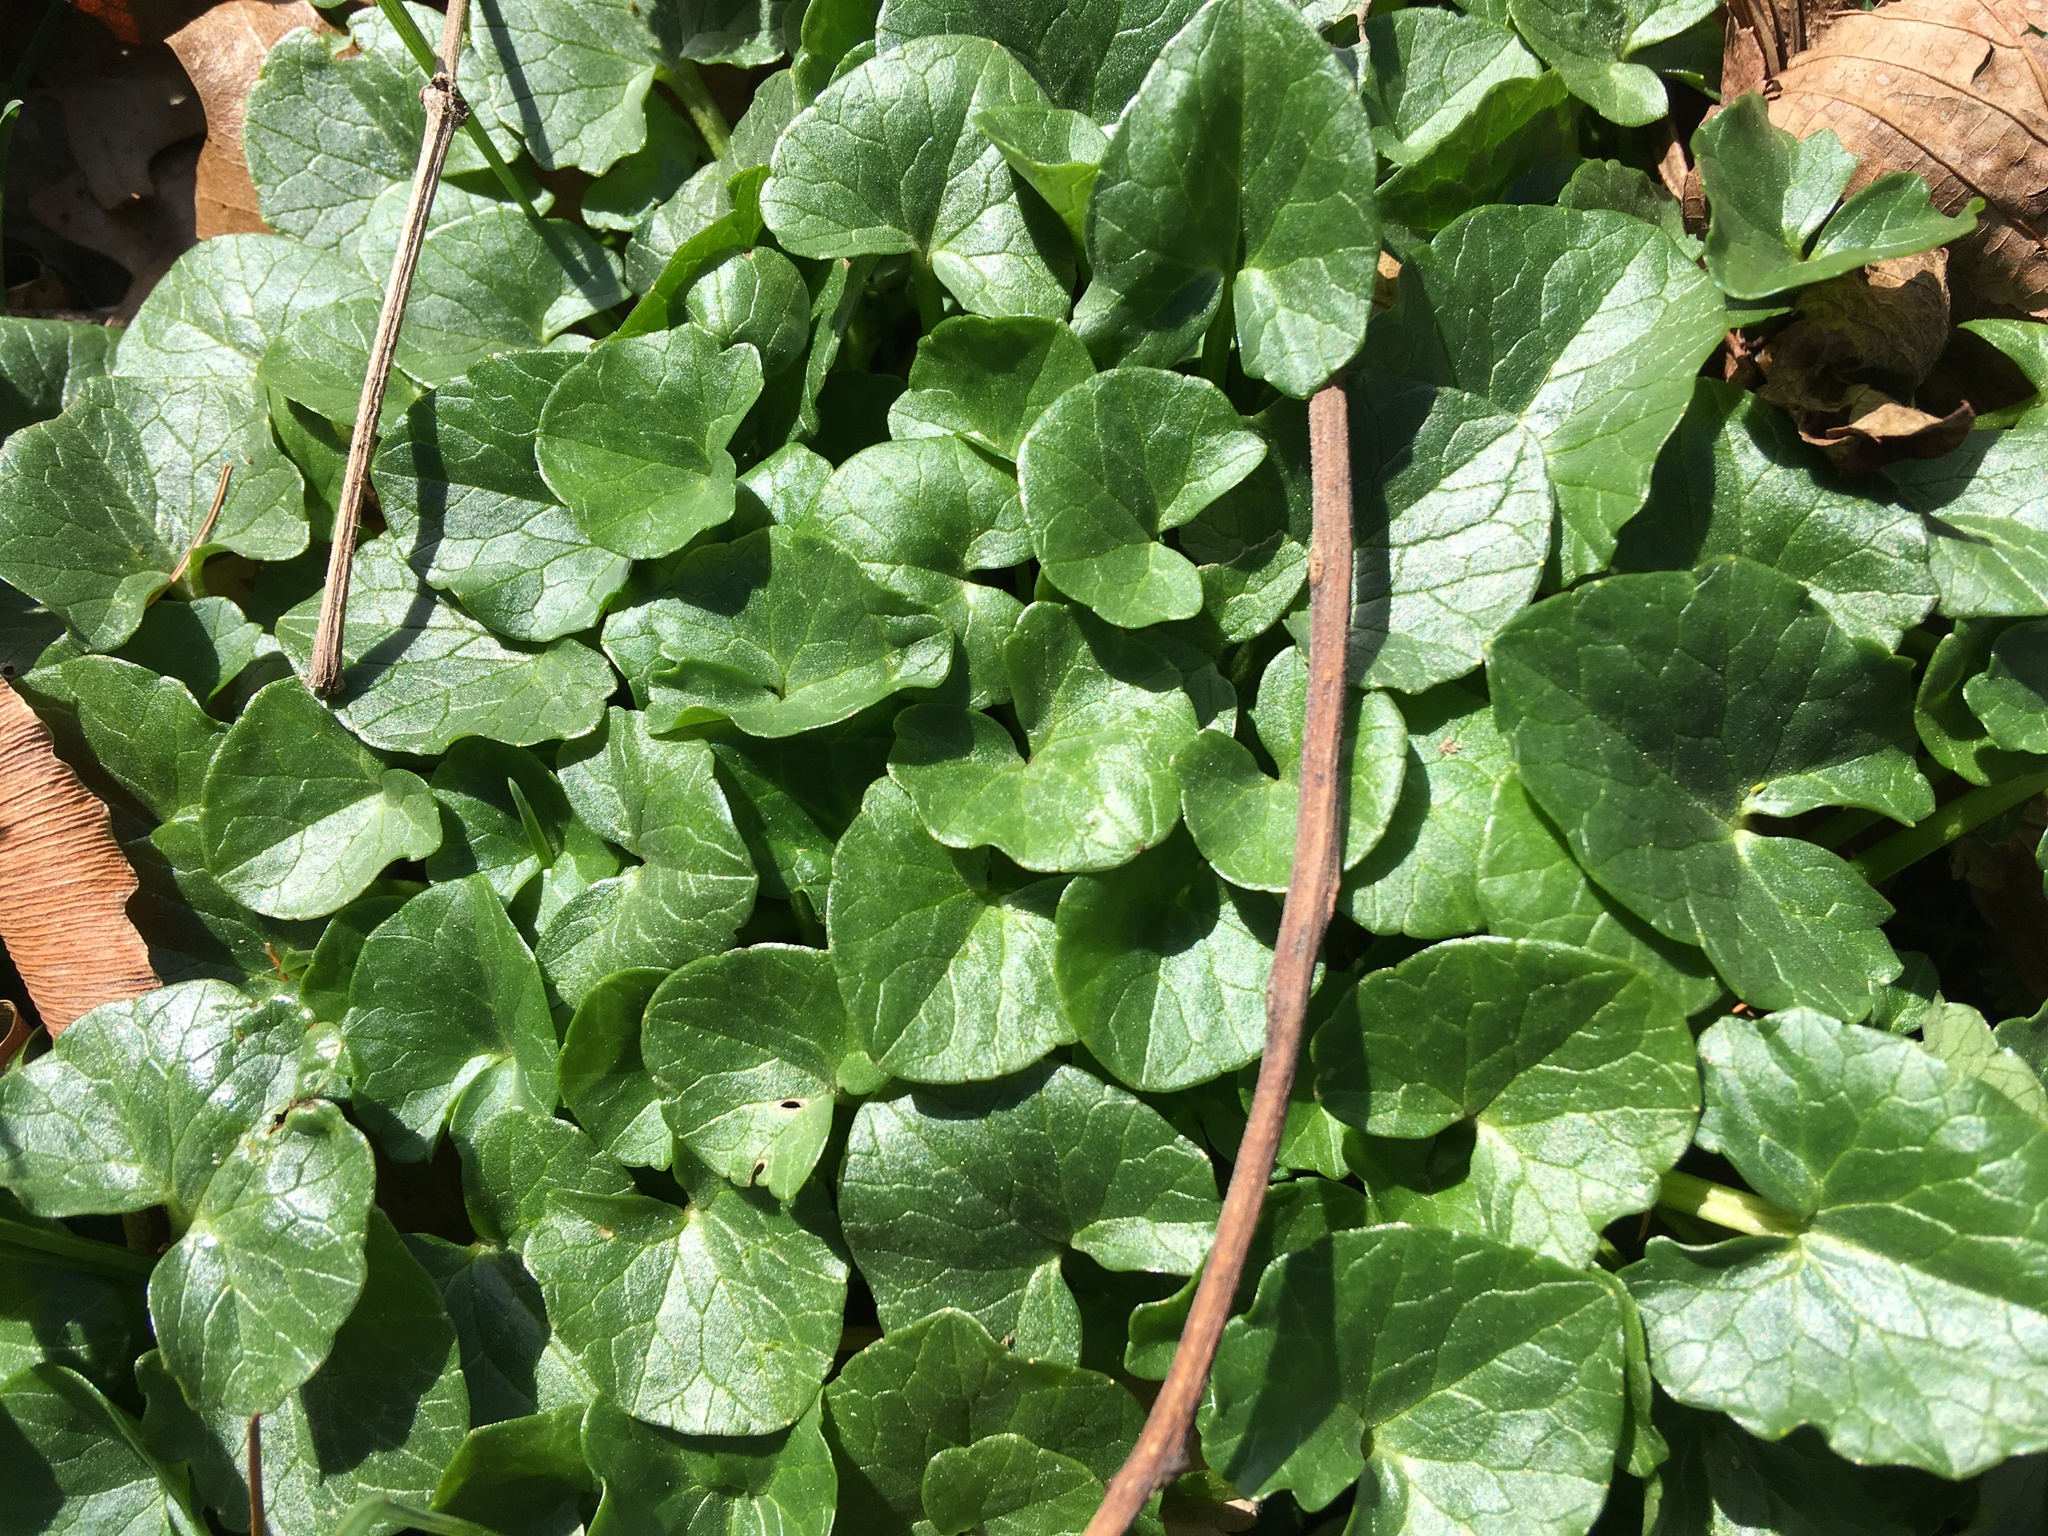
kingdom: Plantae
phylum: Tracheophyta
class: Magnoliopsida
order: Ranunculales
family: Ranunculaceae
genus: Ficaria
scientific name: Ficaria verna
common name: Lesser celandine
